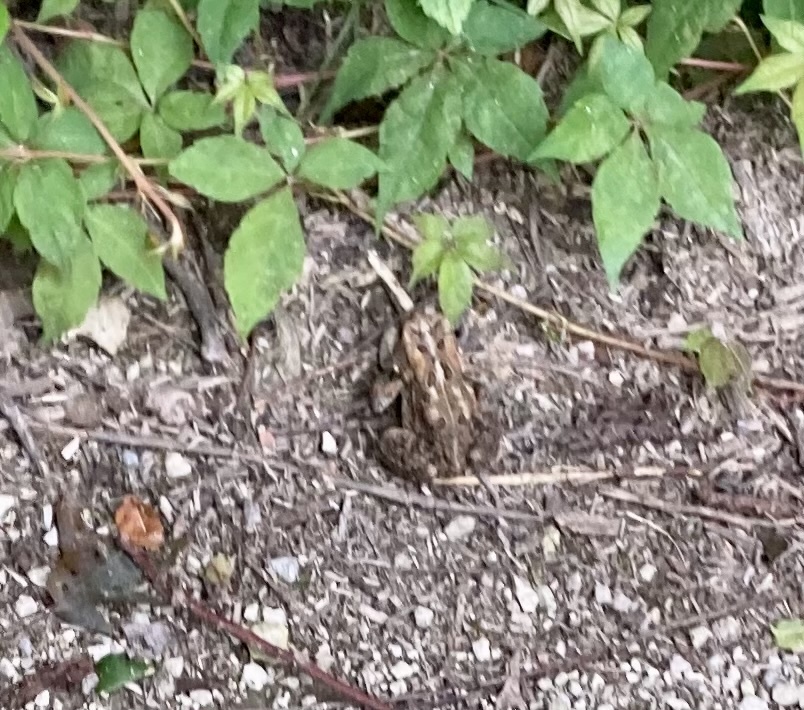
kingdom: Animalia
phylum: Chordata
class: Amphibia
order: Anura
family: Bufonidae
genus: Anaxyrus
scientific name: Anaxyrus americanus
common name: American toad
